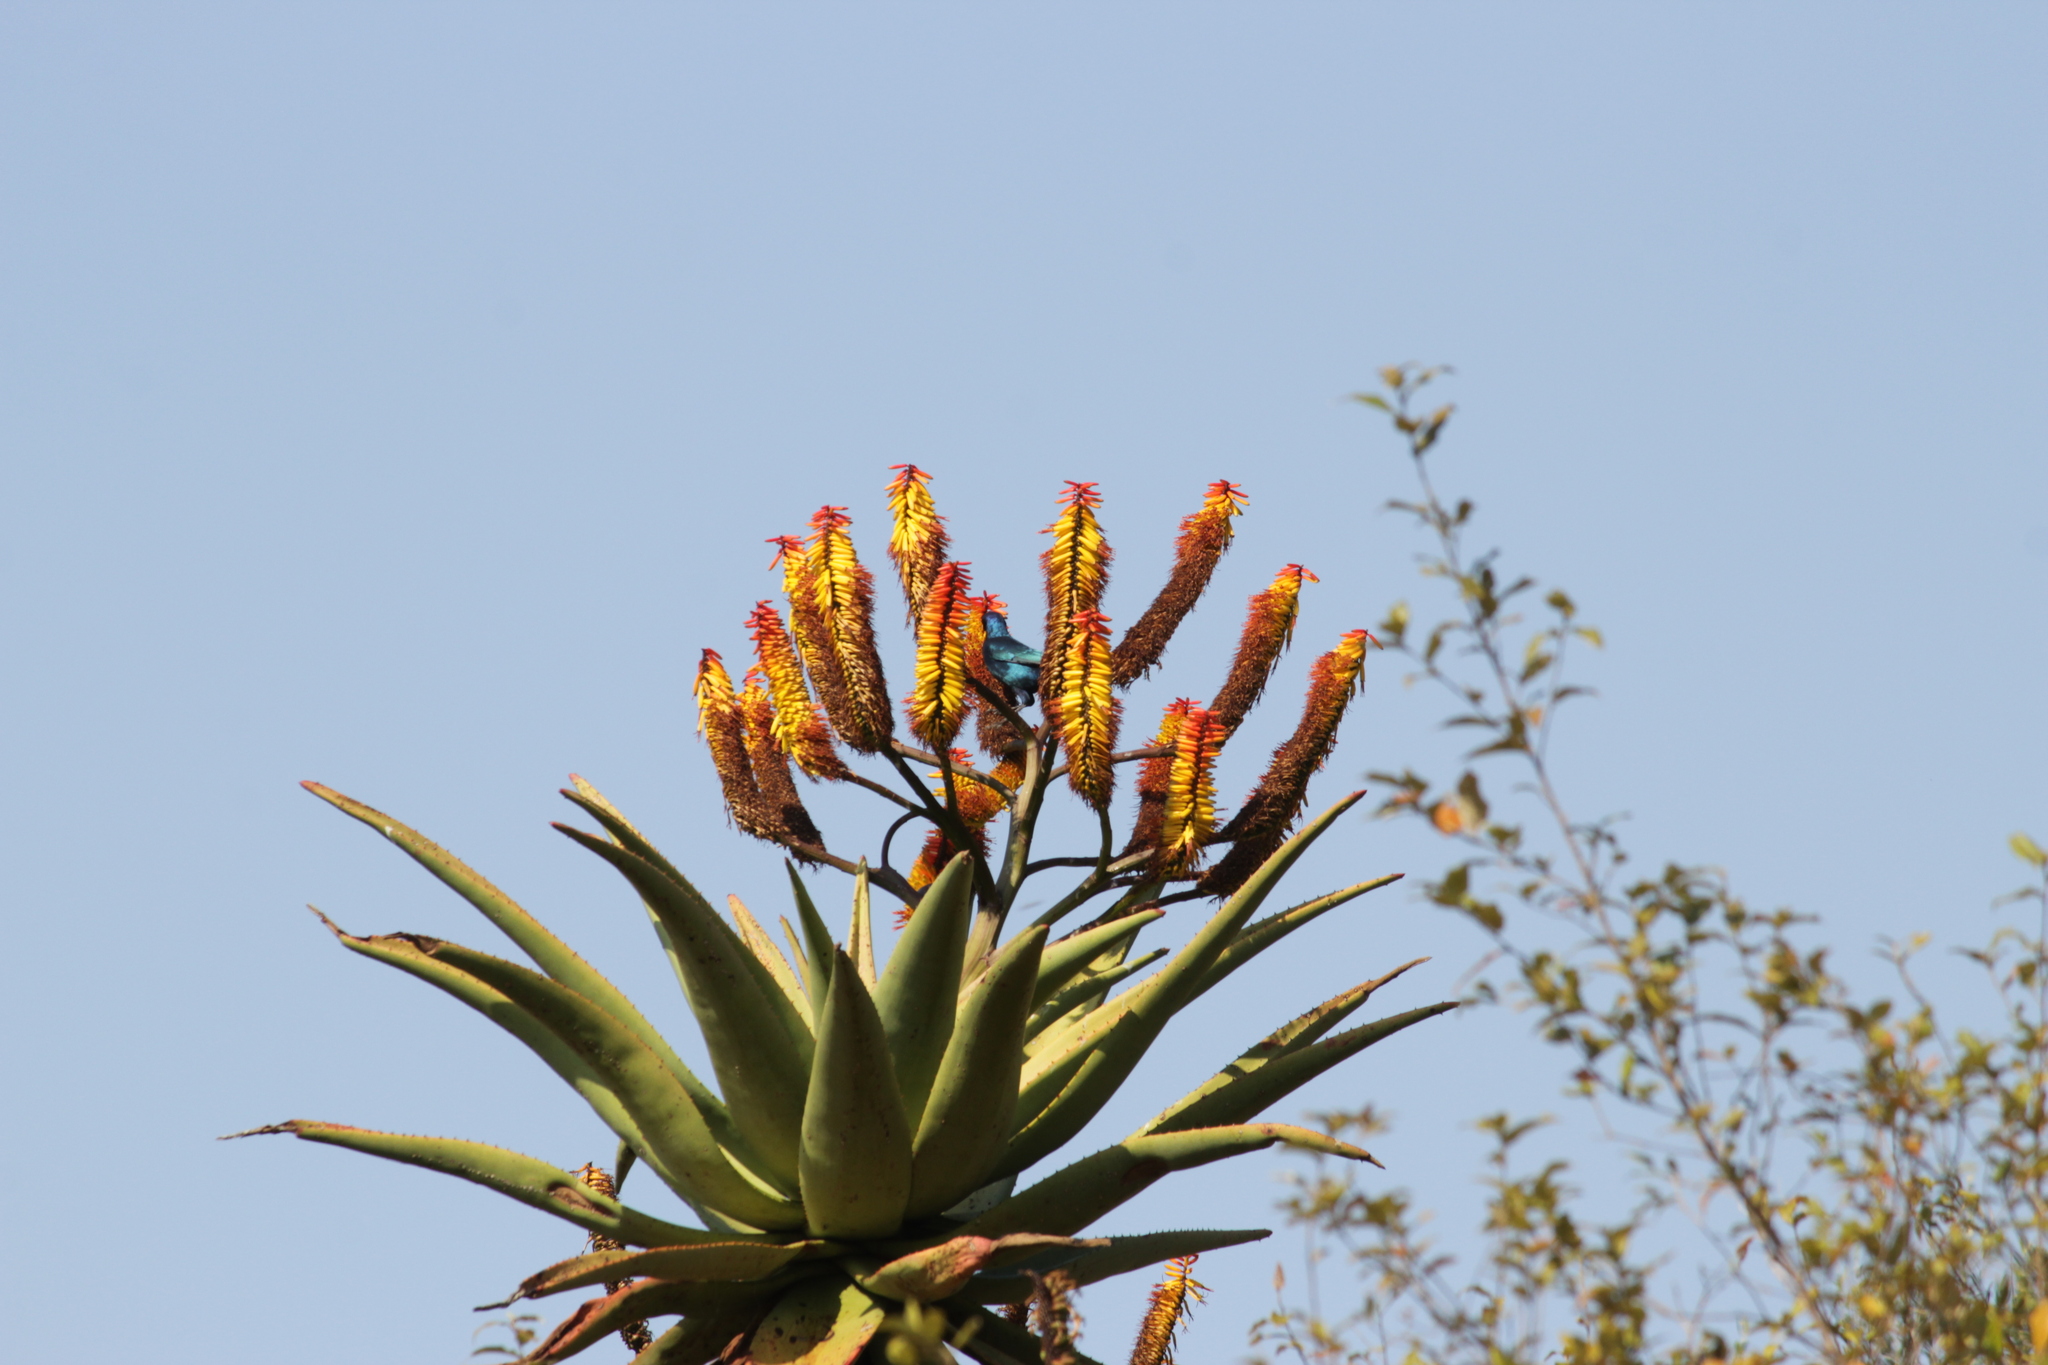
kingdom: Plantae
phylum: Tracheophyta
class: Liliopsida
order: Asparagales
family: Asphodelaceae
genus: Aloe
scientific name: Aloe marlothii
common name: Flat-flowered aloe
